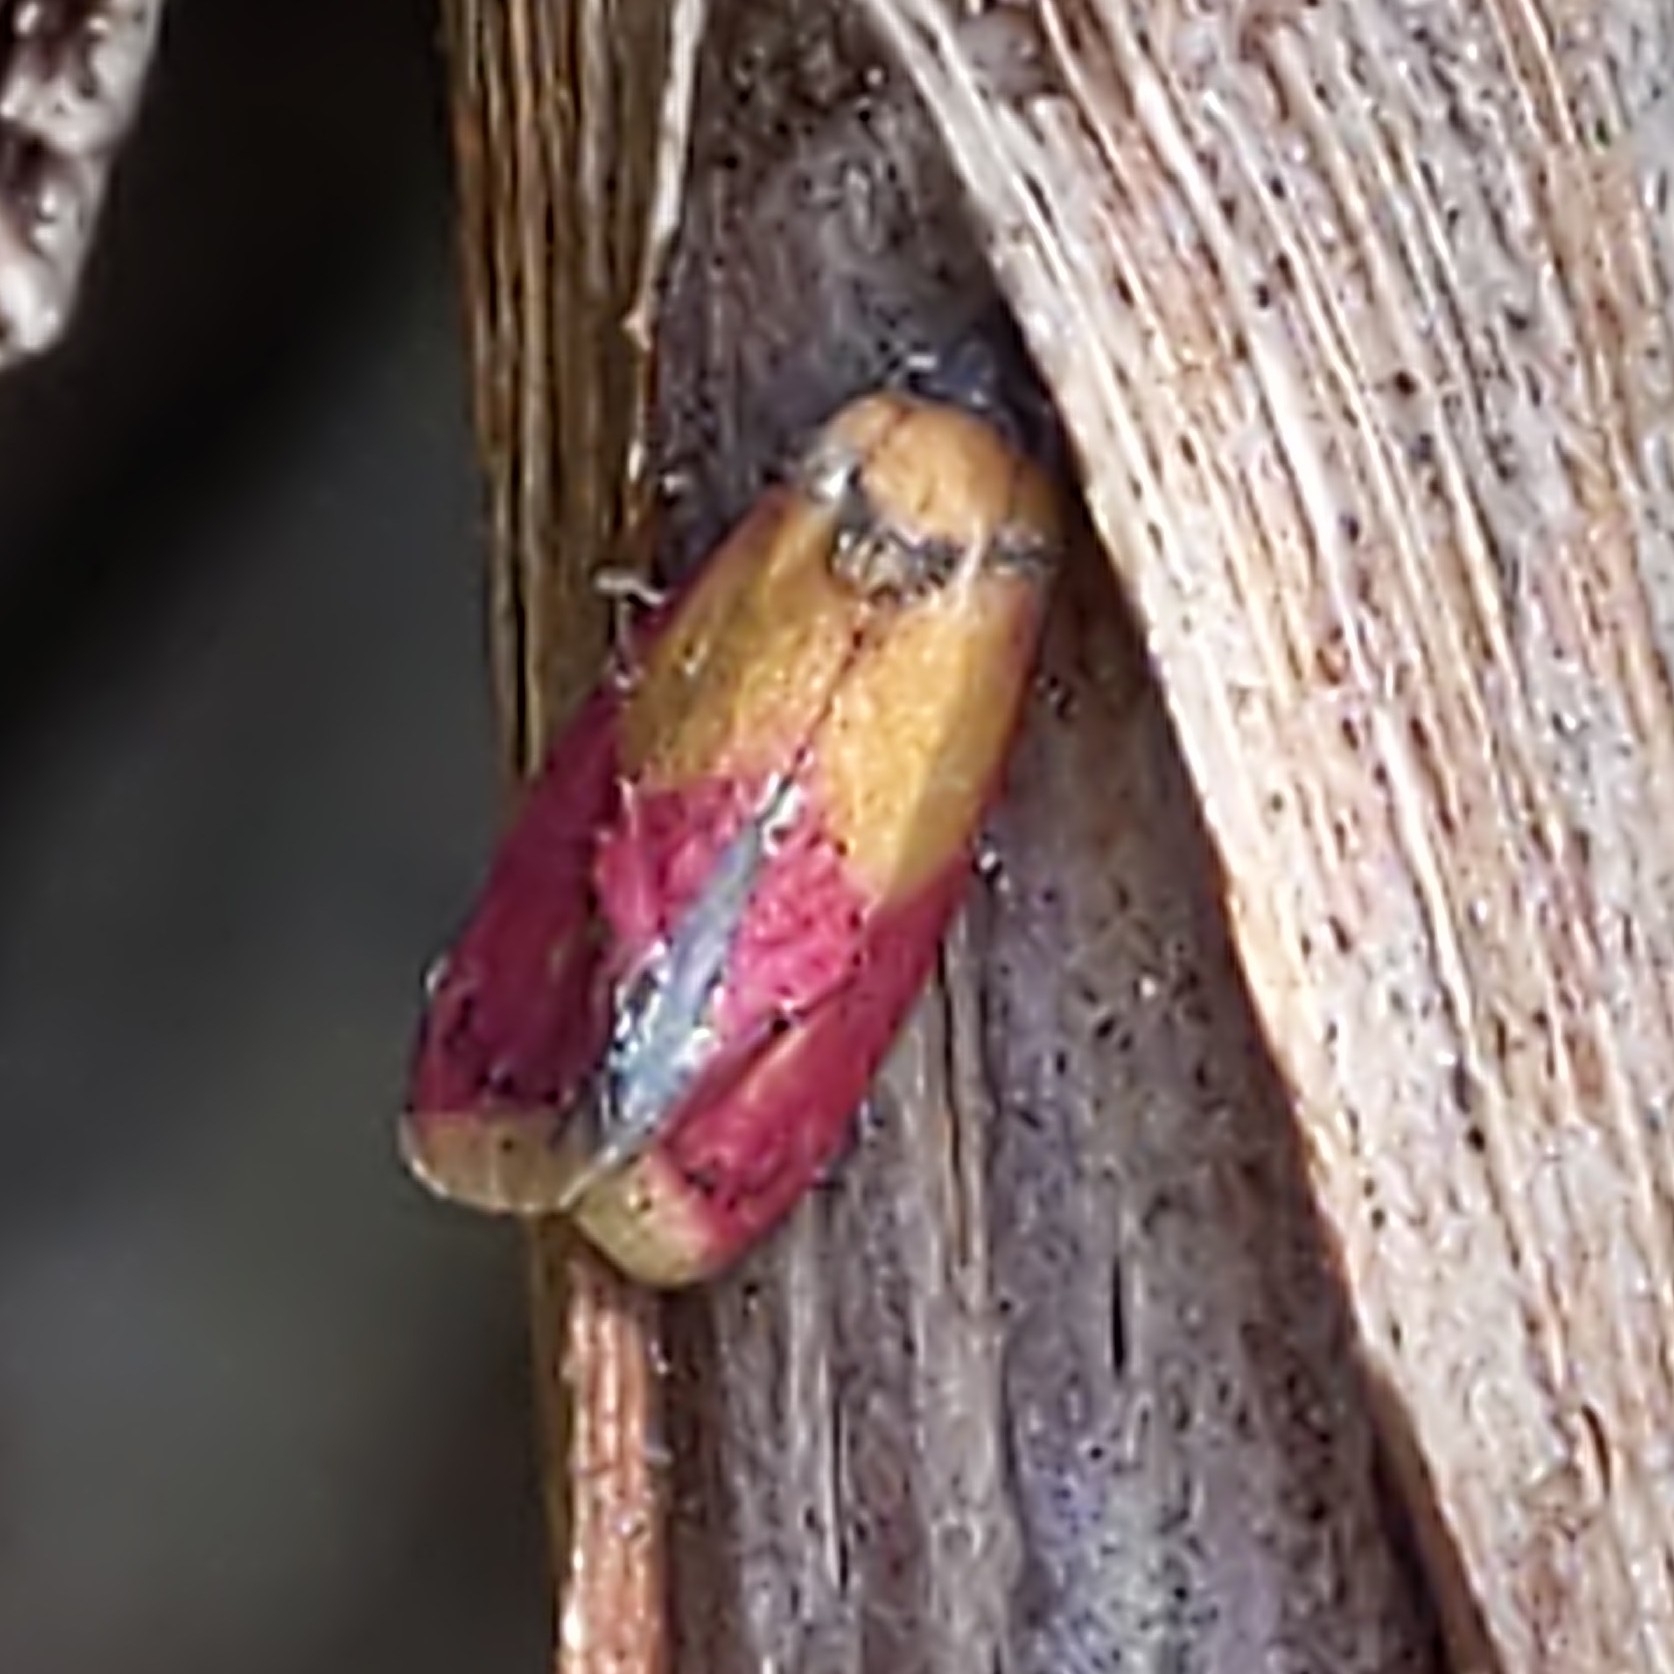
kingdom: Animalia
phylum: Arthropoda
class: Insecta
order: Lepidoptera
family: Tortricidae
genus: Conchylis
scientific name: Conchylis oenotherana
